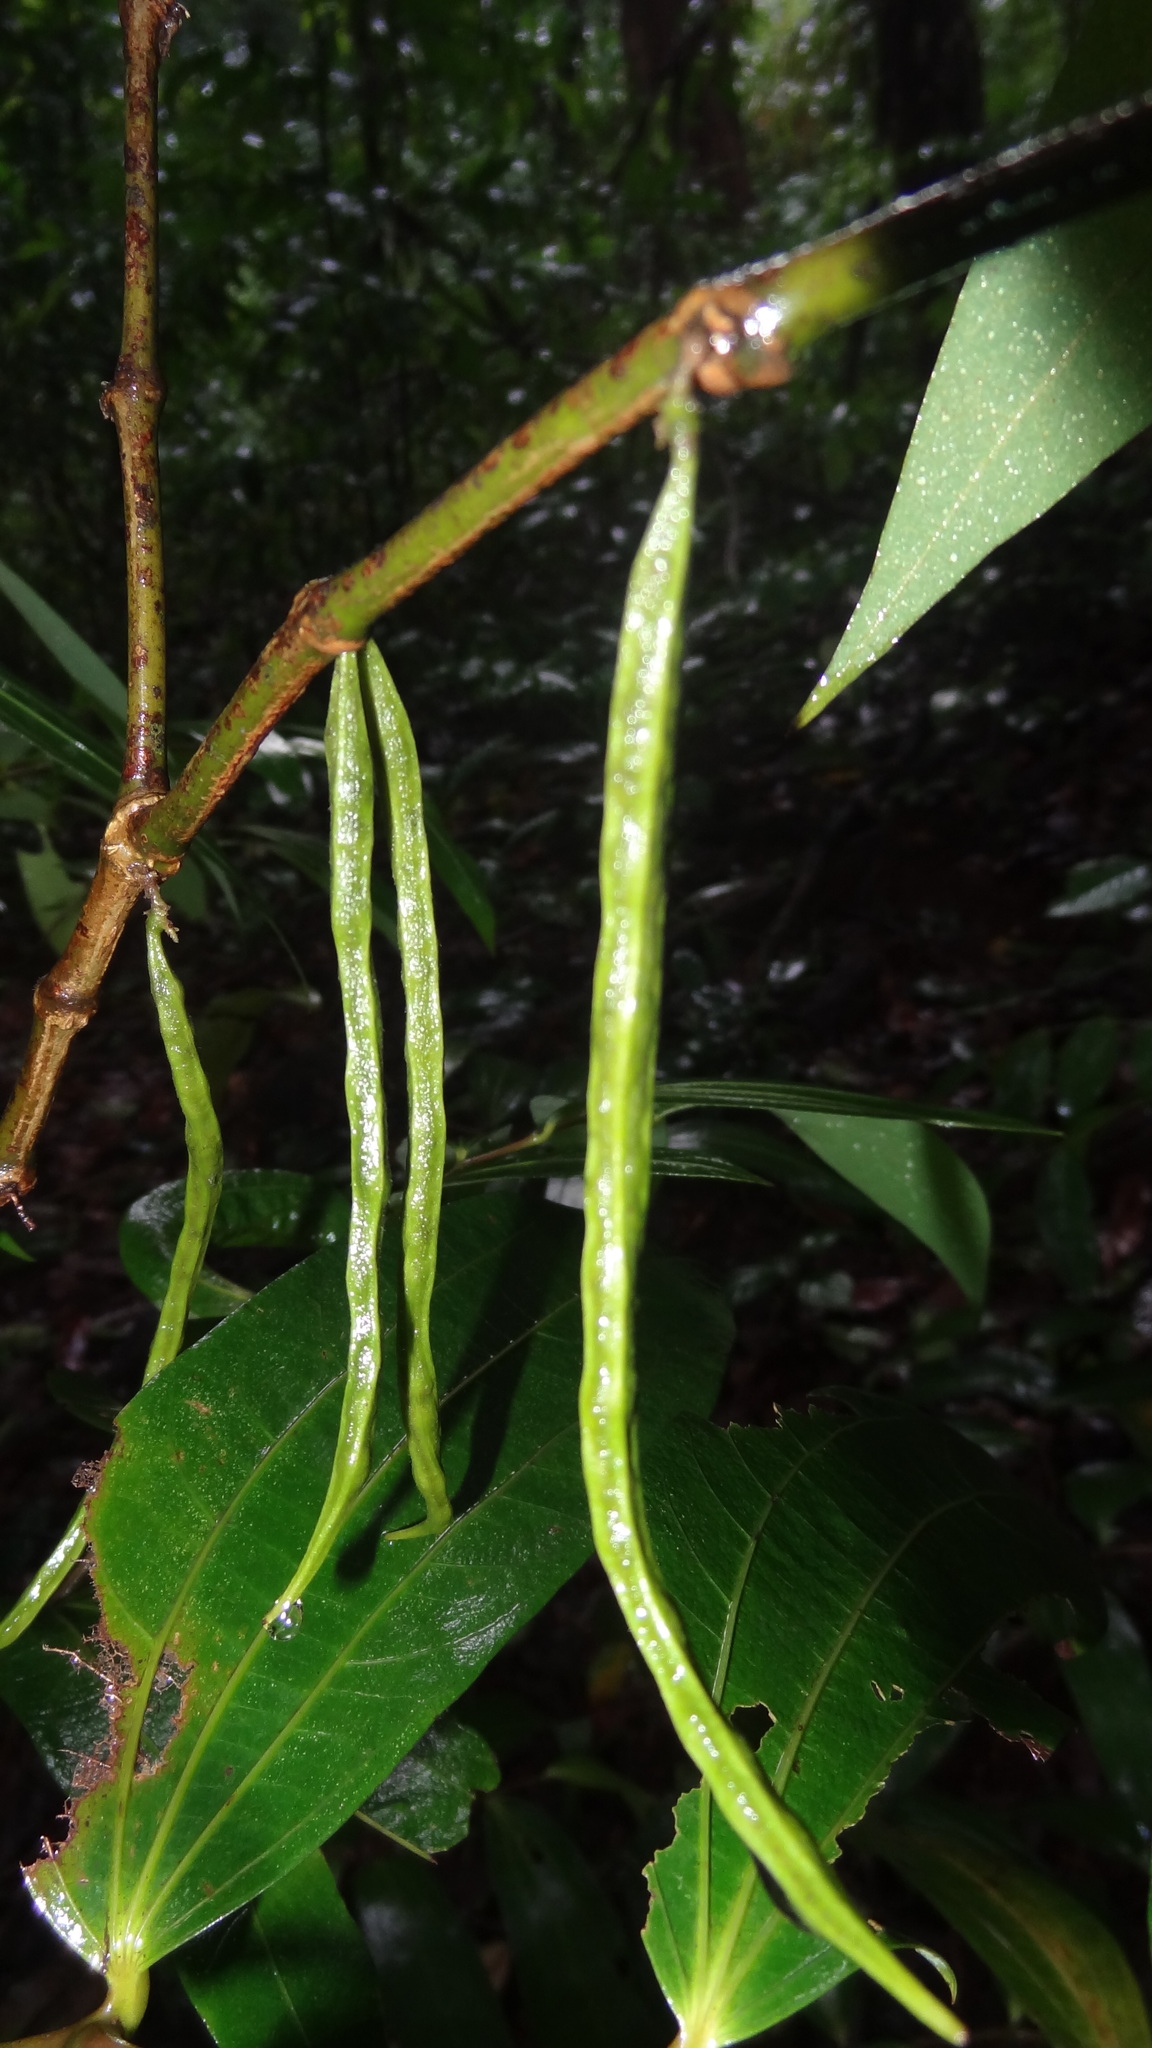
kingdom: Plantae
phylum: Tracheophyta
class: Magnoliopsida
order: Piperales
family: Aristolochiaceae
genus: Thottea
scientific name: Thottea siliquosa
